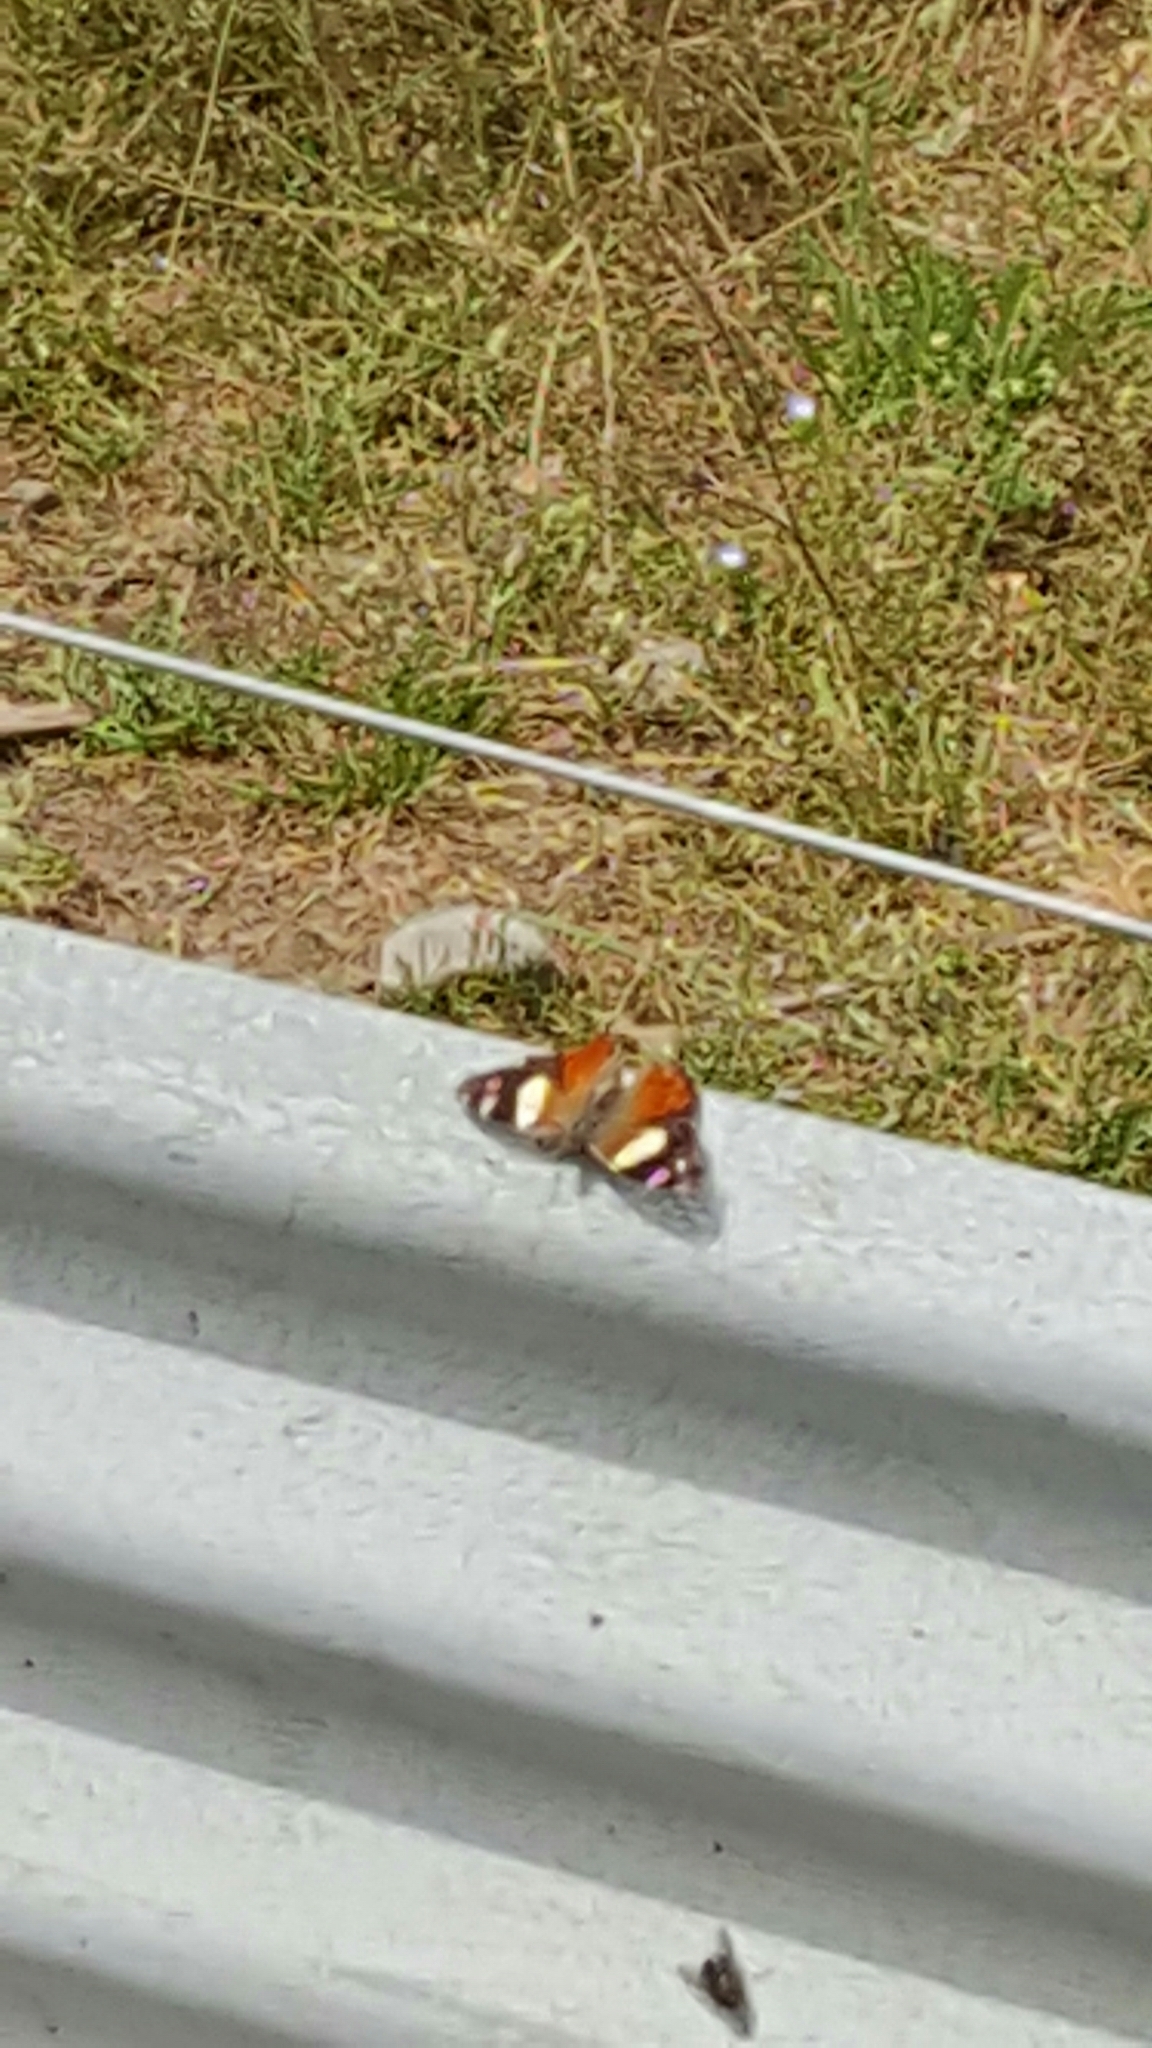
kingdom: Animalia
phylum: Arthropoda
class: Insecta
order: Lepidoptera
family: Nymphalidae
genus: Vanessa
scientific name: Vanessa itea
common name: Yellow admiral
